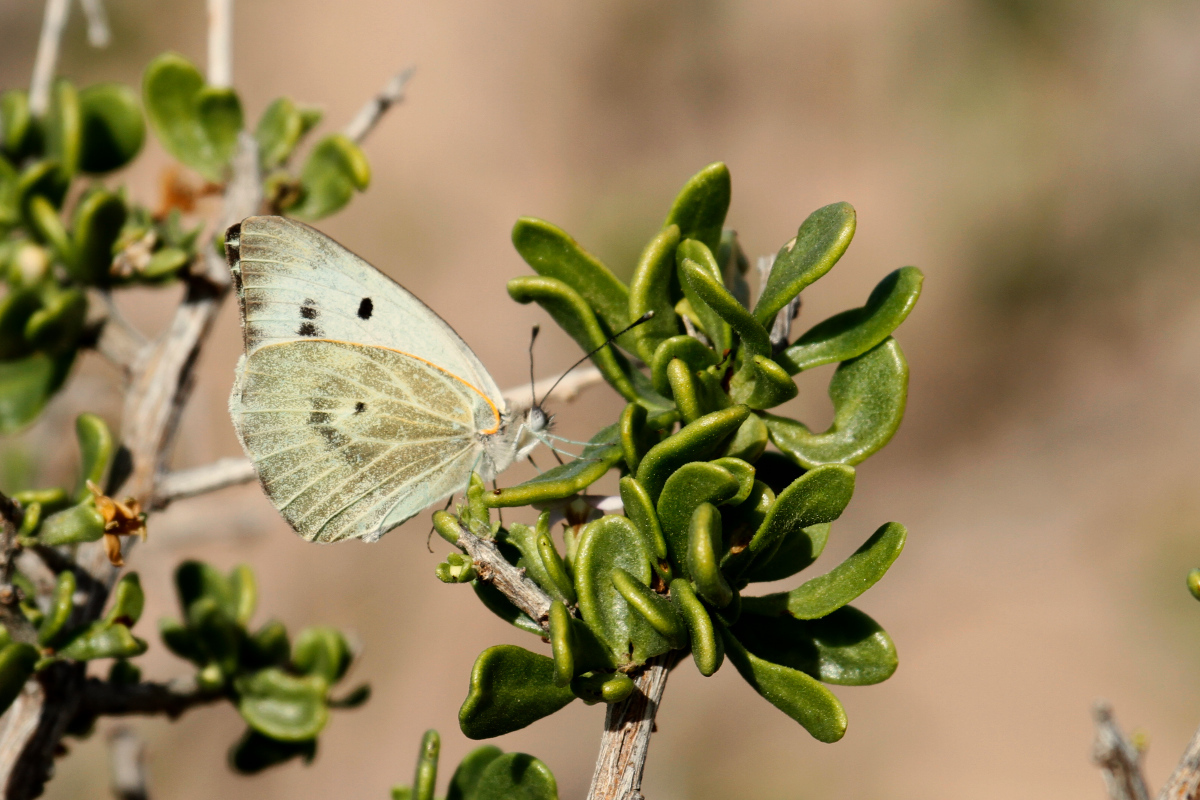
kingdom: Animalia
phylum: Arthropoda
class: Insecta
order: Lepidoptera
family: Pieridae
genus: Ganyra
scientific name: Ganyra howarthi
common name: Howarth's white
